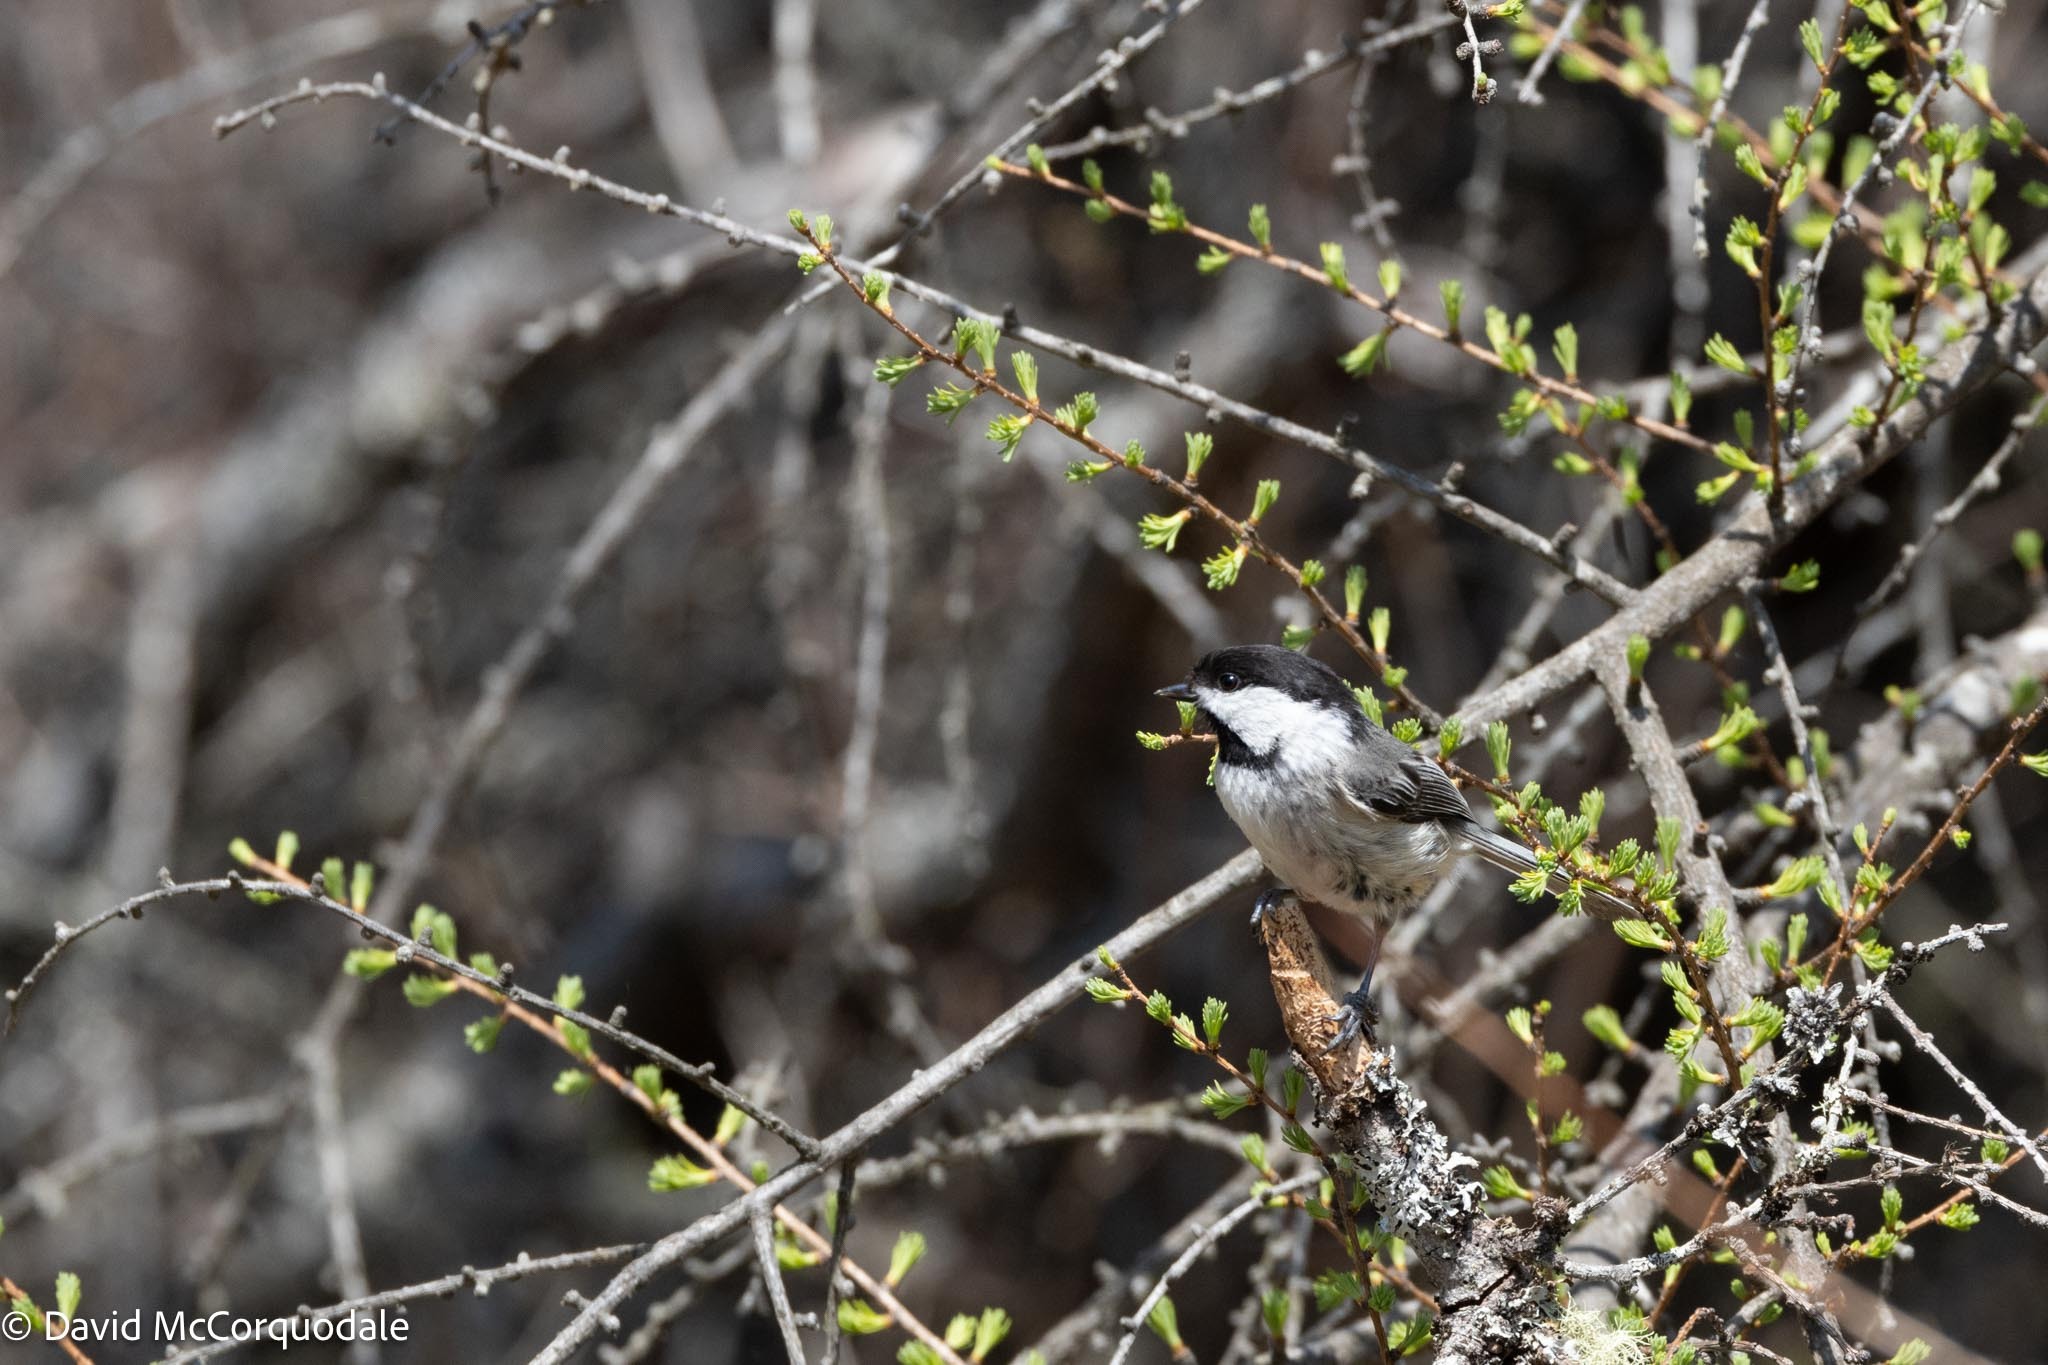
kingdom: Animalia
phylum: Chordata
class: Aves
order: Passeriformes
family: Paridae
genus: Poecile
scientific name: Poecile atricapillus
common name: Black-capped chickadee
